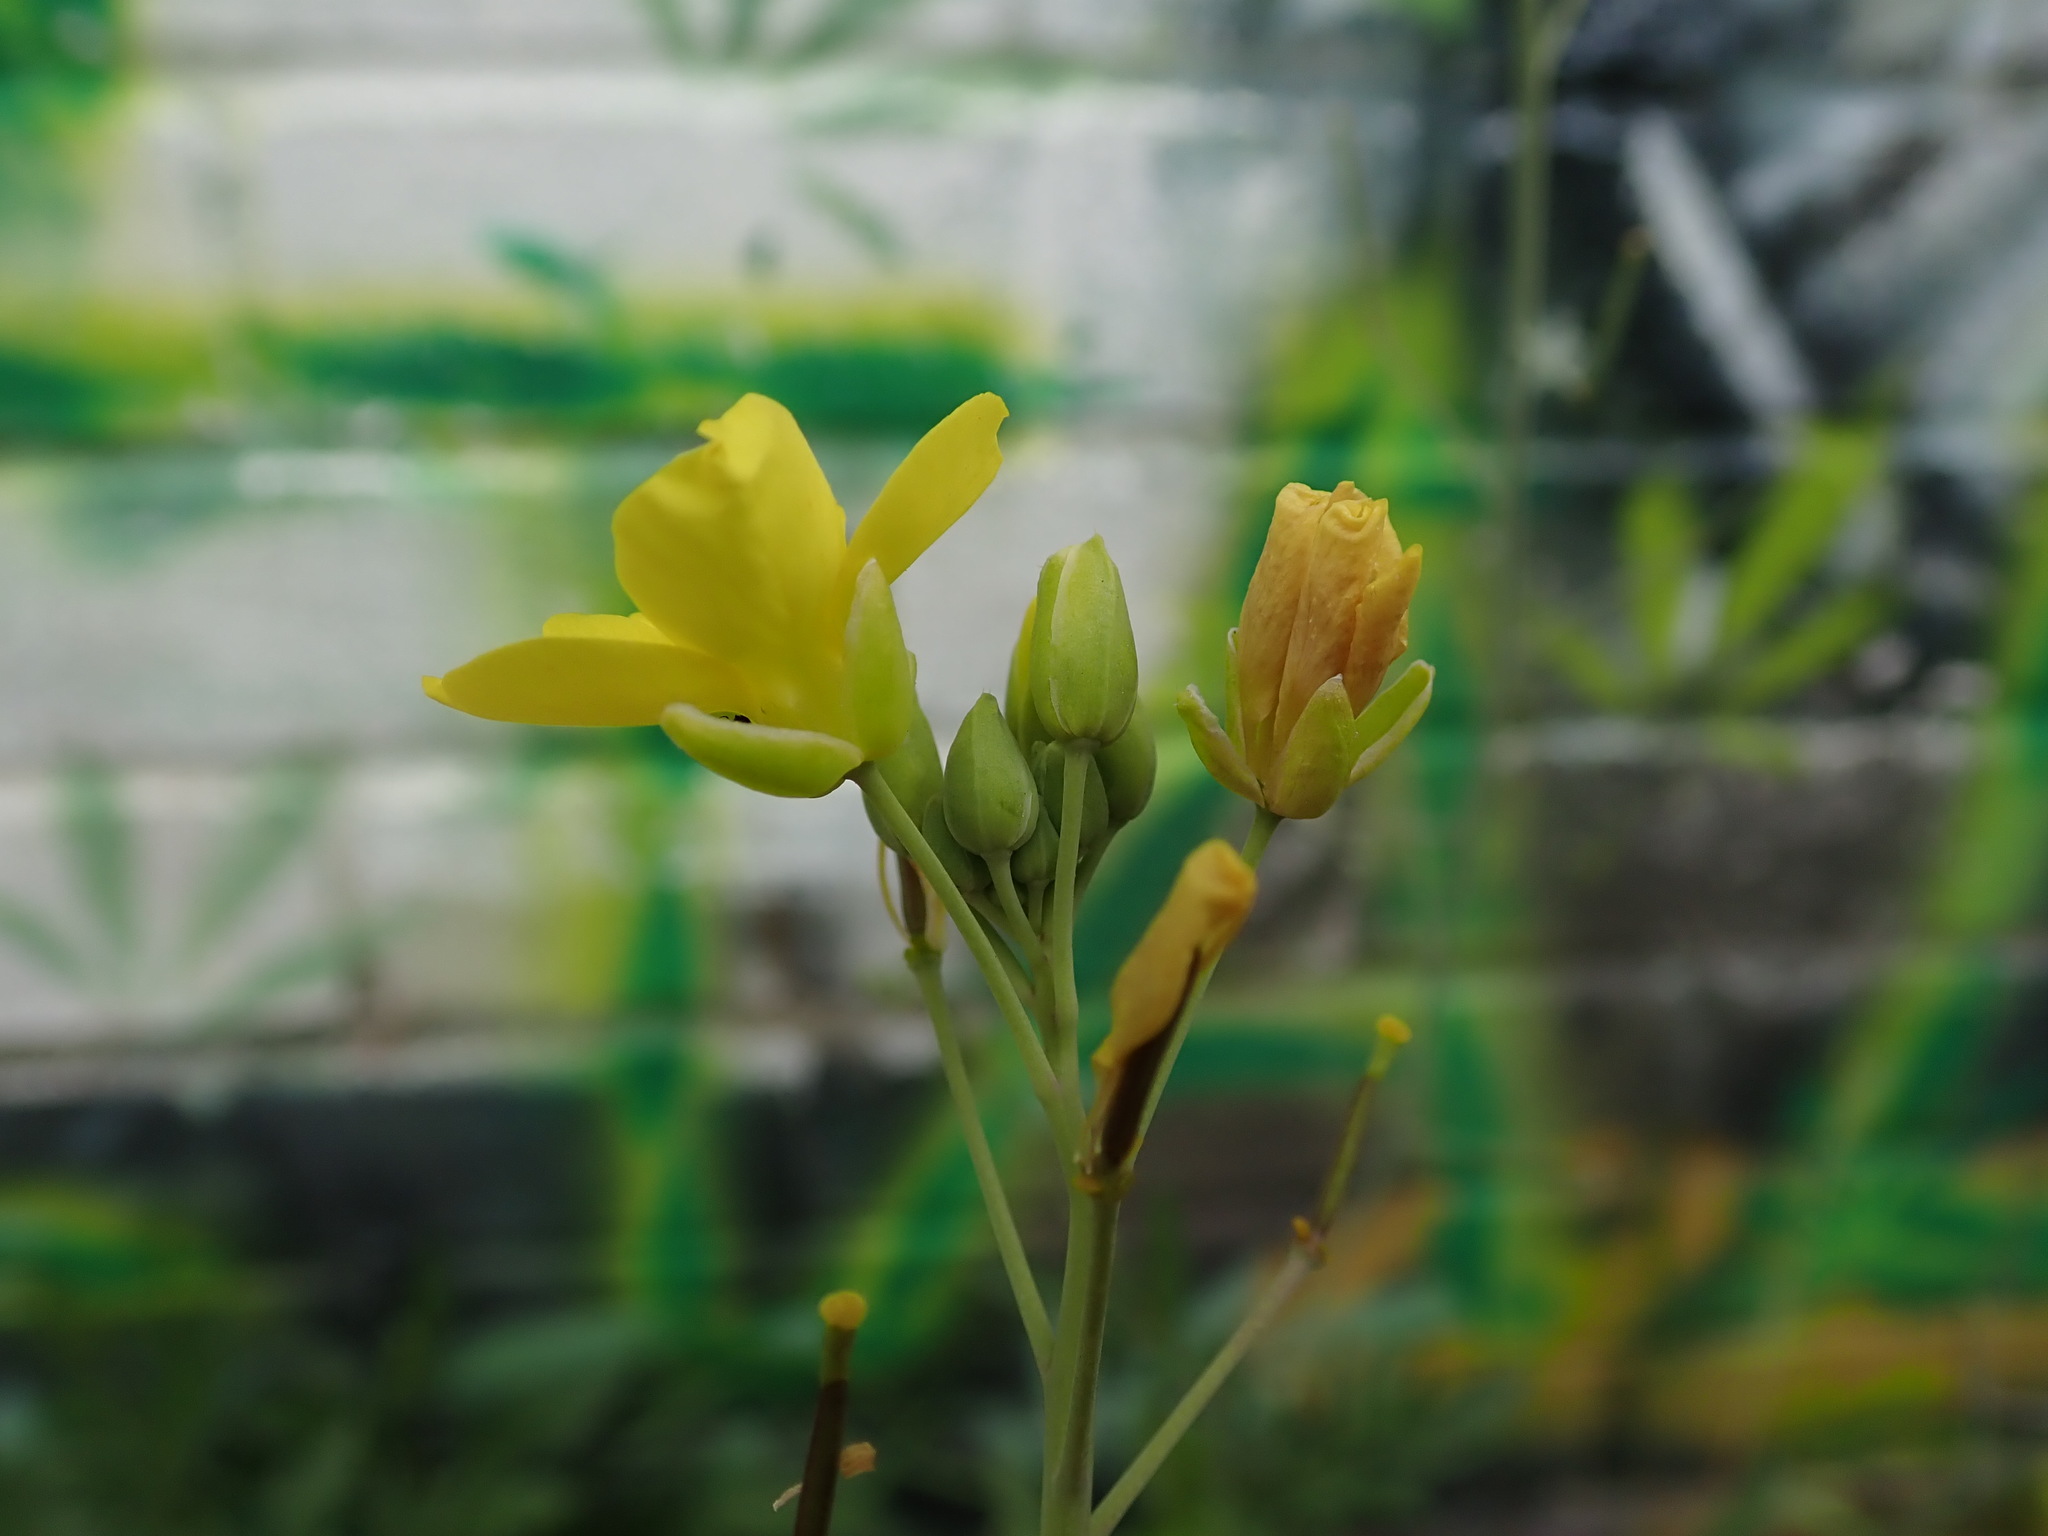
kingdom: Plantae
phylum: Tracheophyta
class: Magnoliopsida
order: Brassicales
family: Brassicaceae
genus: Diplotaxis
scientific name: Diplotaxis tenuifolia
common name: Perennial wall-rocket
